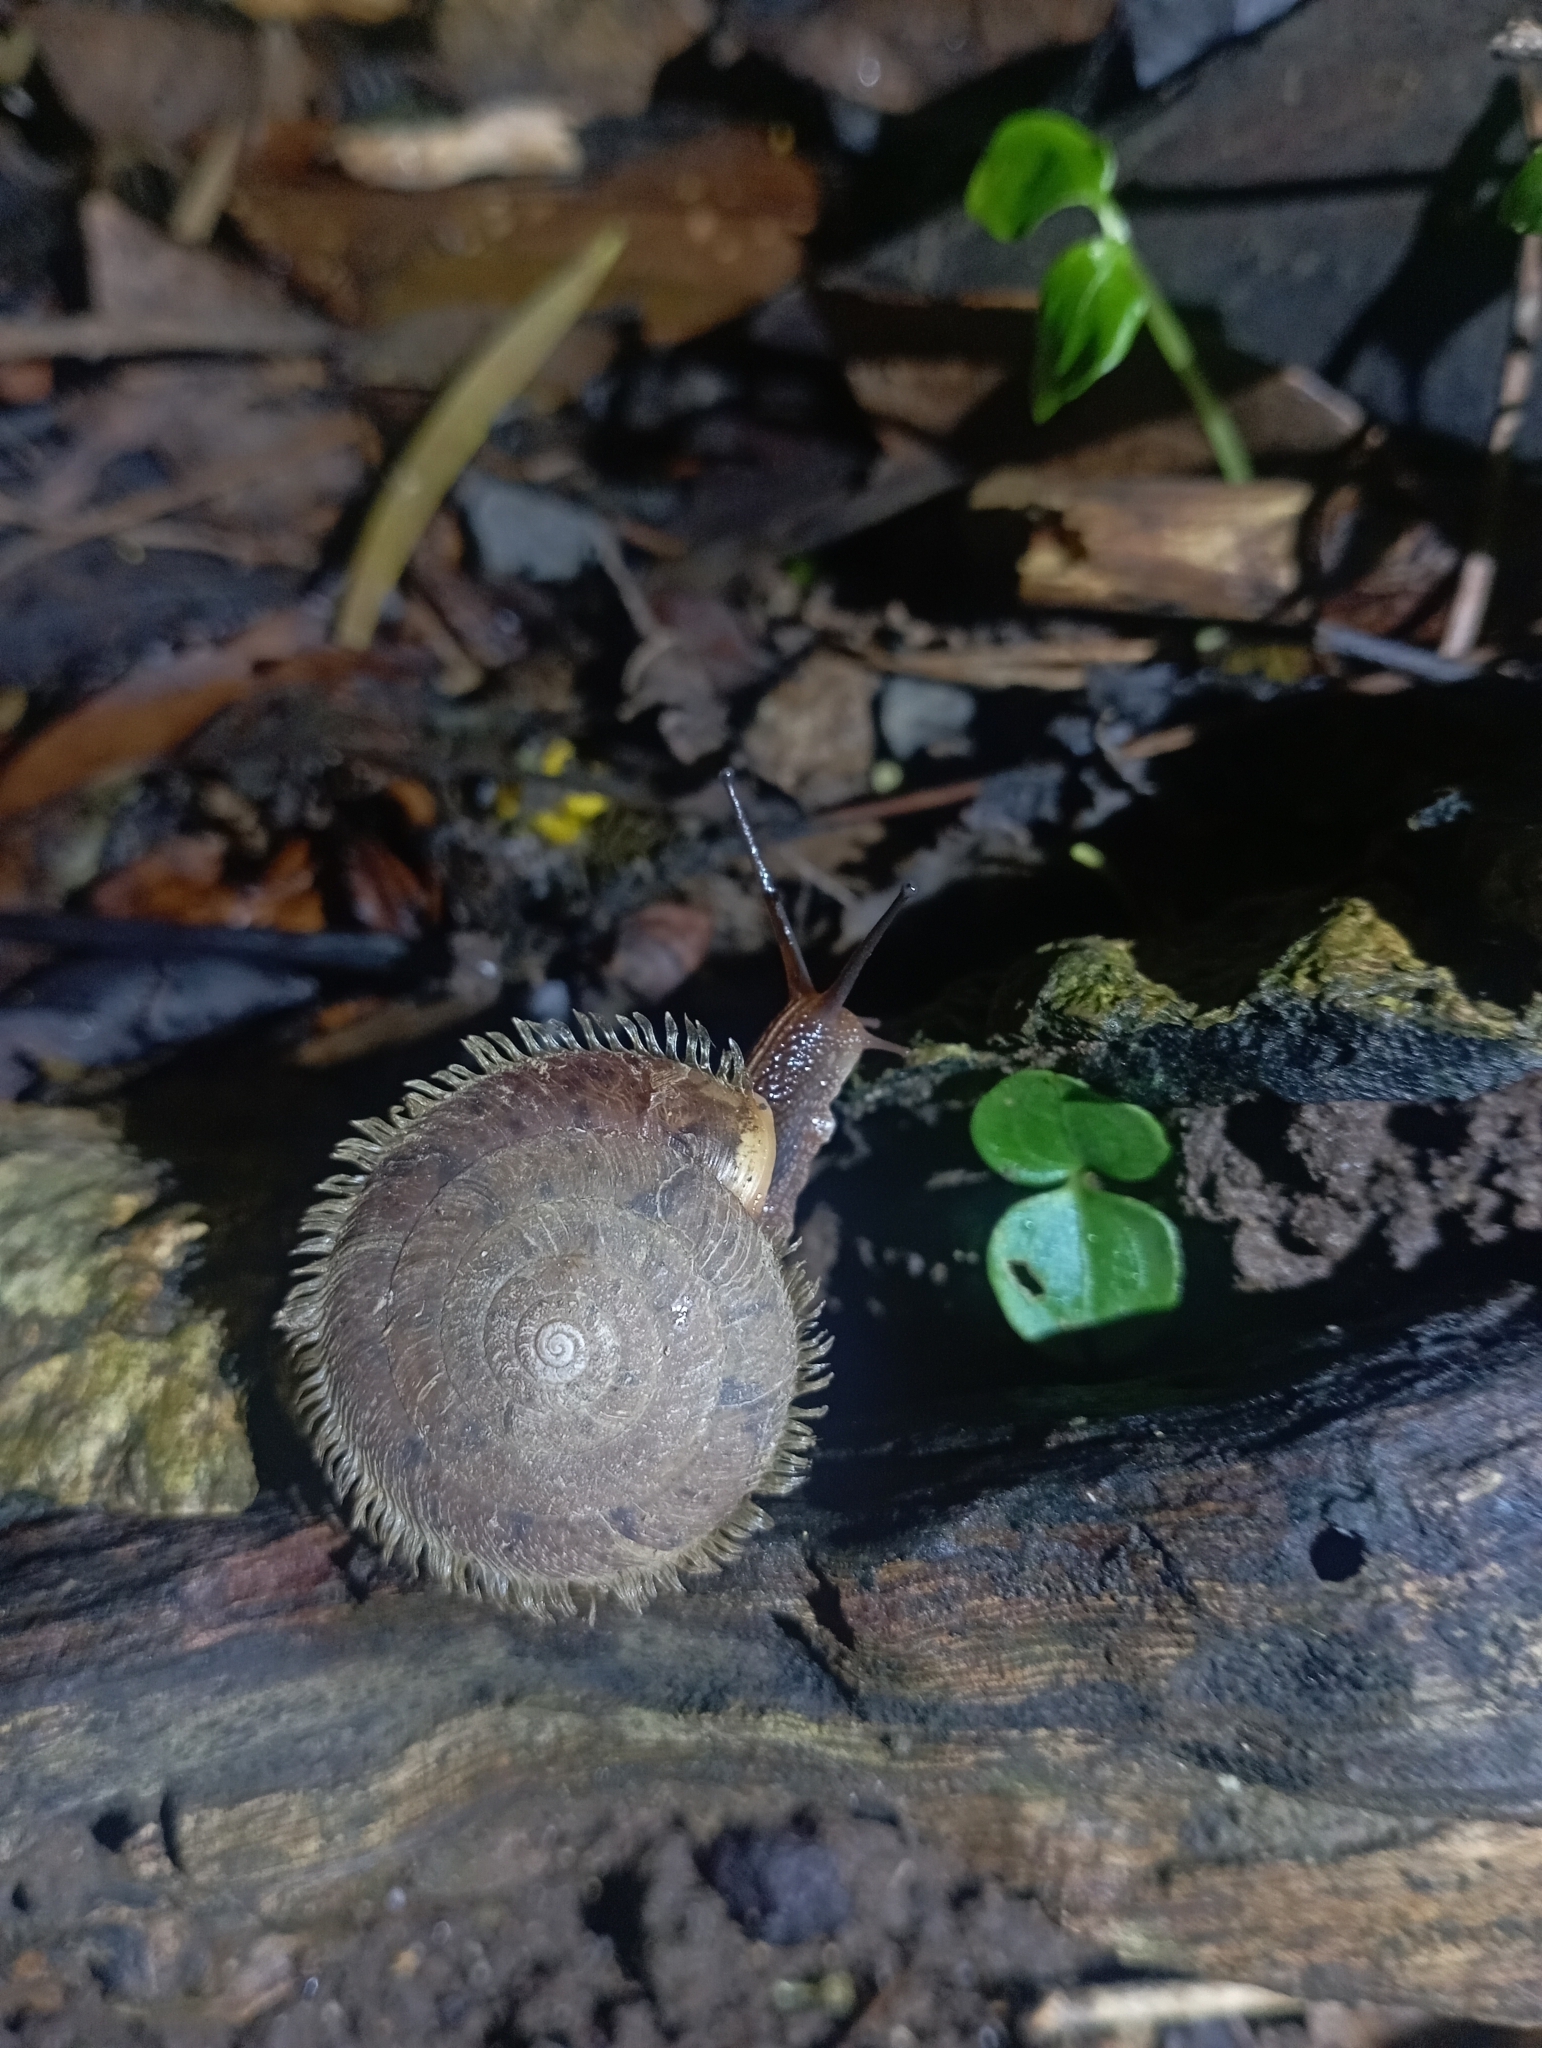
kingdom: Animalia
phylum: Mollusca
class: Gastropoda
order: Stylommatophora
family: Camaenidae
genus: Plectotropis
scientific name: Plectotropis mackensii
